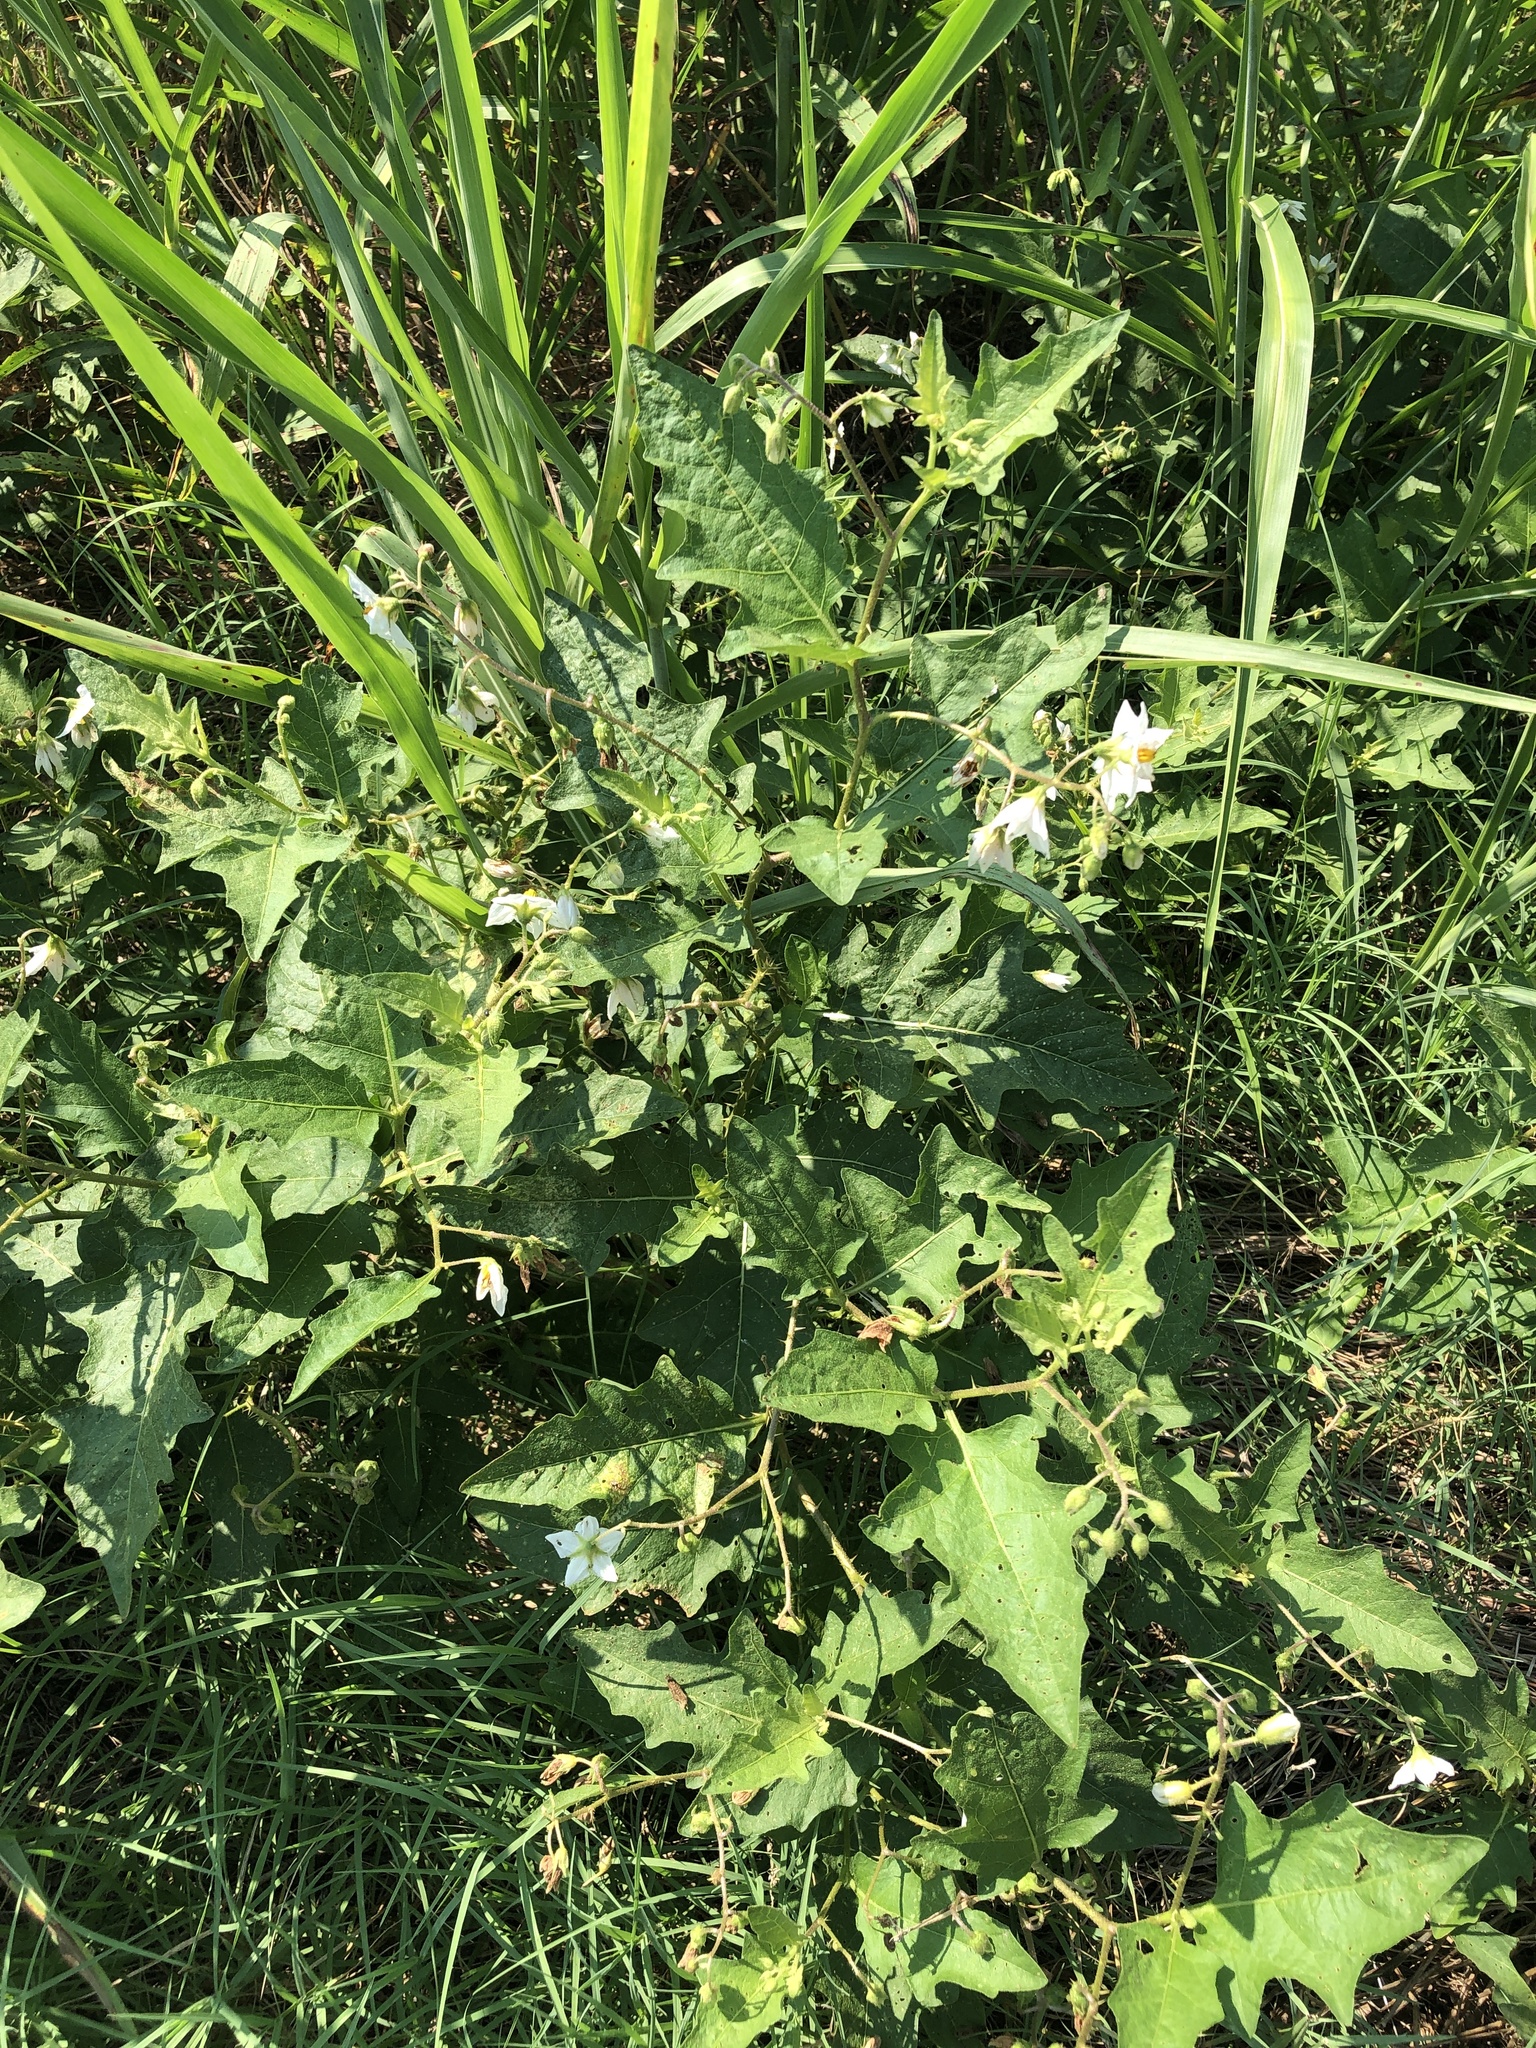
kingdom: Plantae
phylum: Tracheophyta
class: Magnoliopsida
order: Solanales
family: Solanaceae
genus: Solanum
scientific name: Solanum carolinense
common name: Horse-nettle
